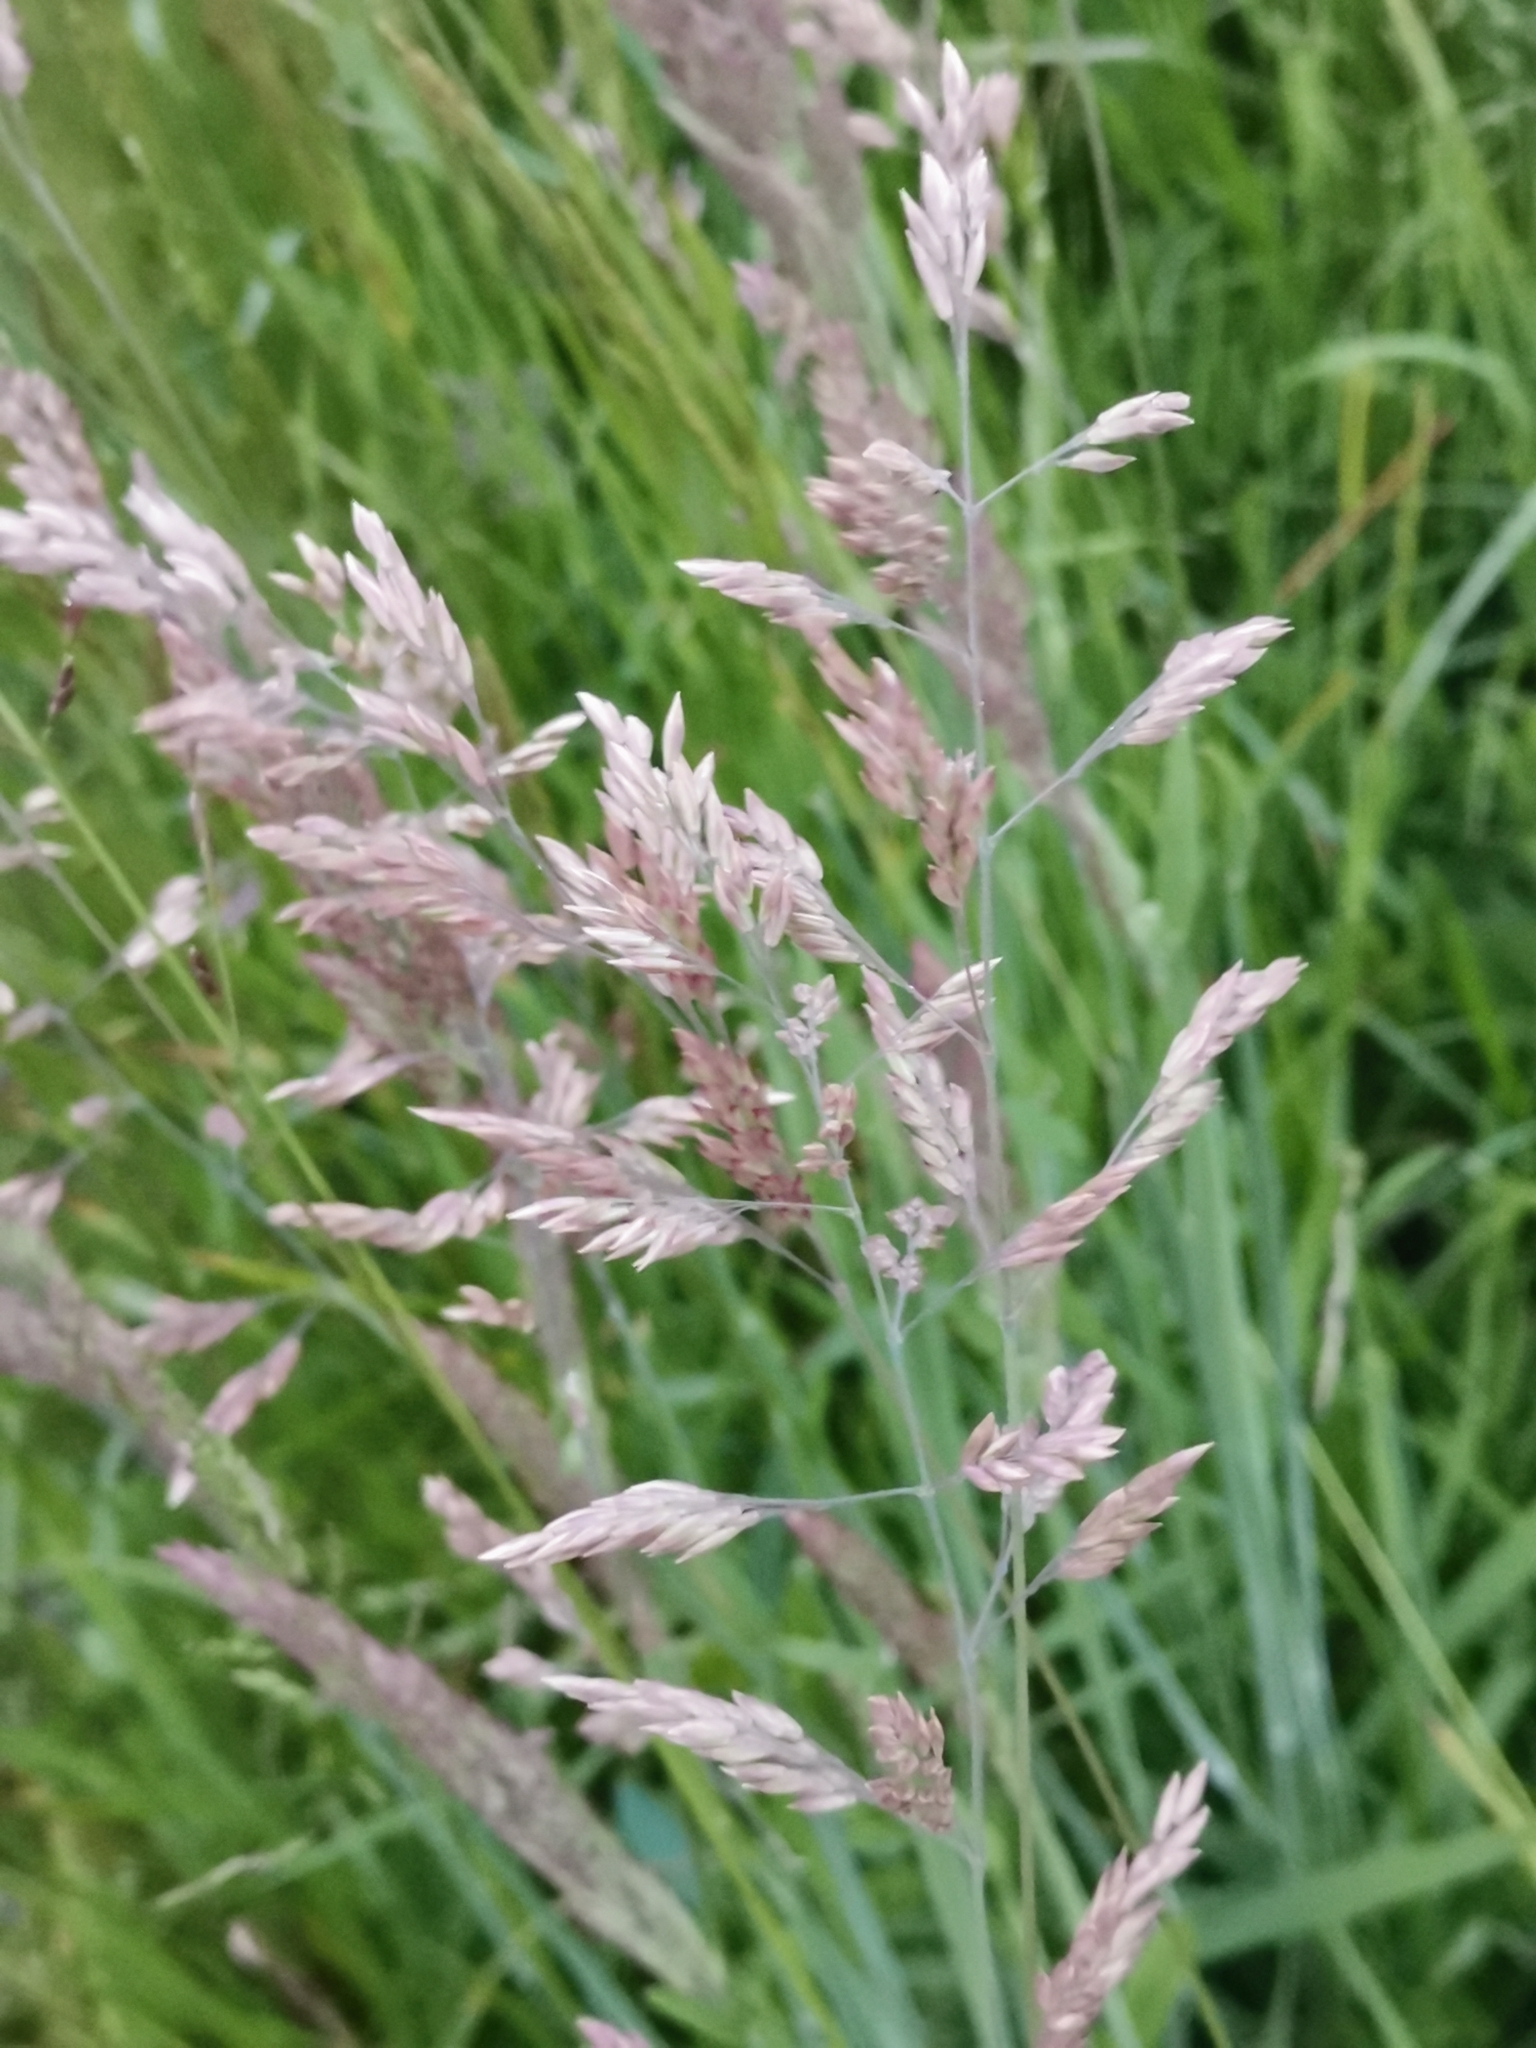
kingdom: Plantae
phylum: Tracheophyta
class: Liliopsida
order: Poales
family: Poaceae
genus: Holcus
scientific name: Holcus lanatus
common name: Yorkshire-fog
